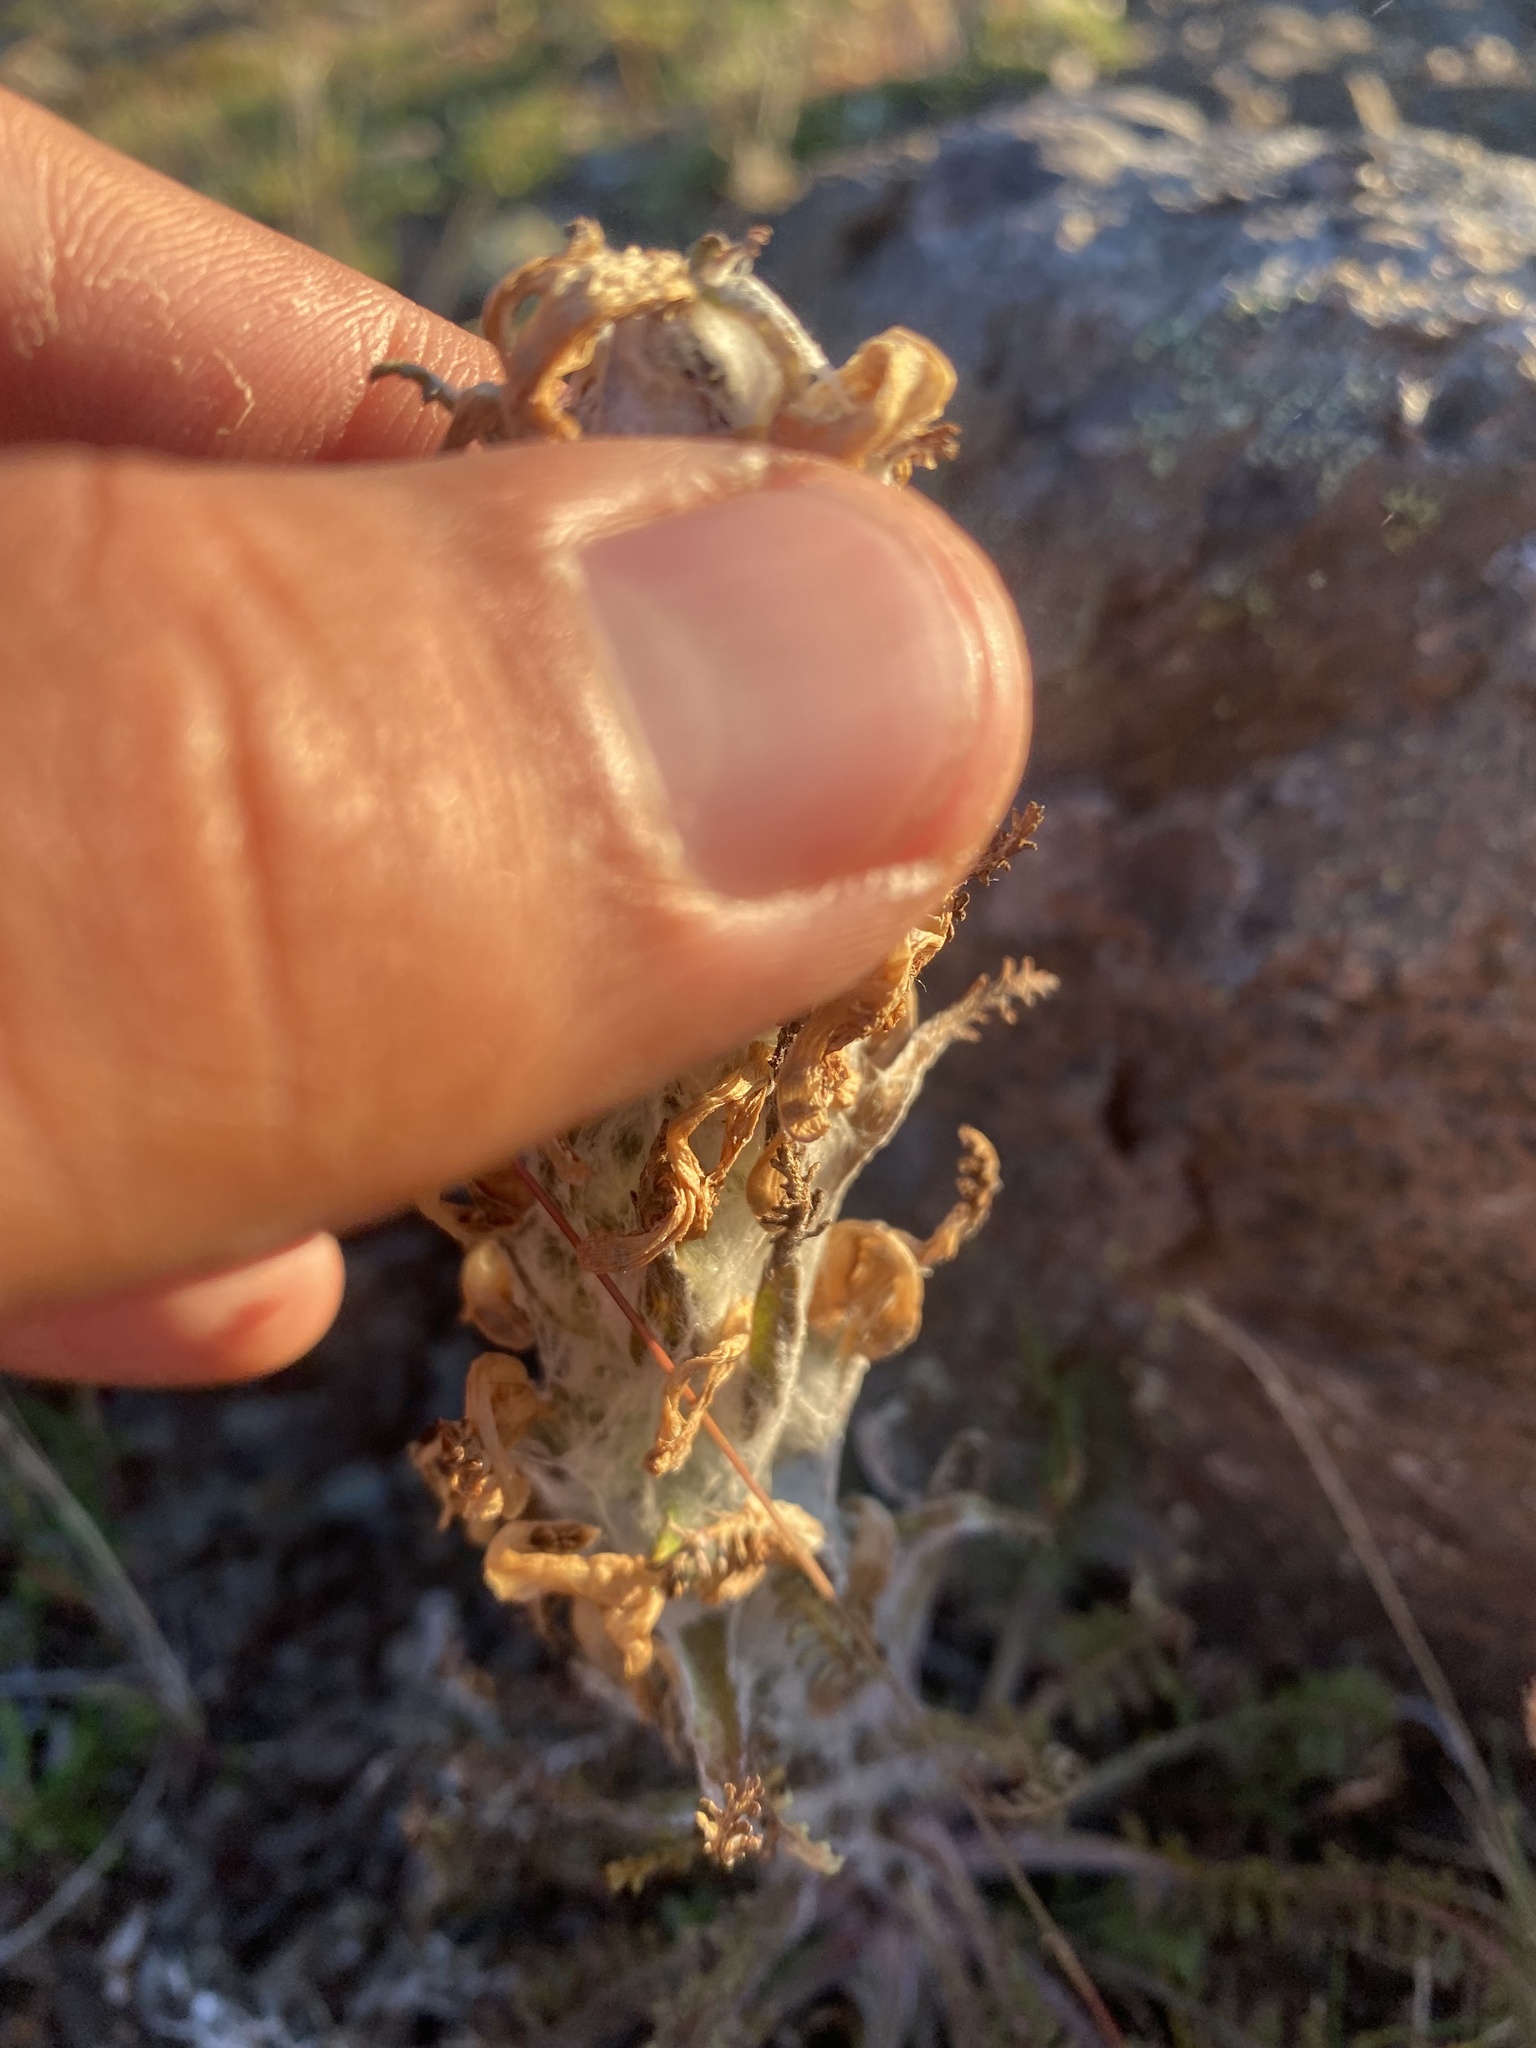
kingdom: Plantae
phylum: Tracheophyta
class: Magnoliopsida
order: Lamiales
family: Orobanchaceae
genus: Pedicularis
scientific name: Pedicularis alopecuroides
